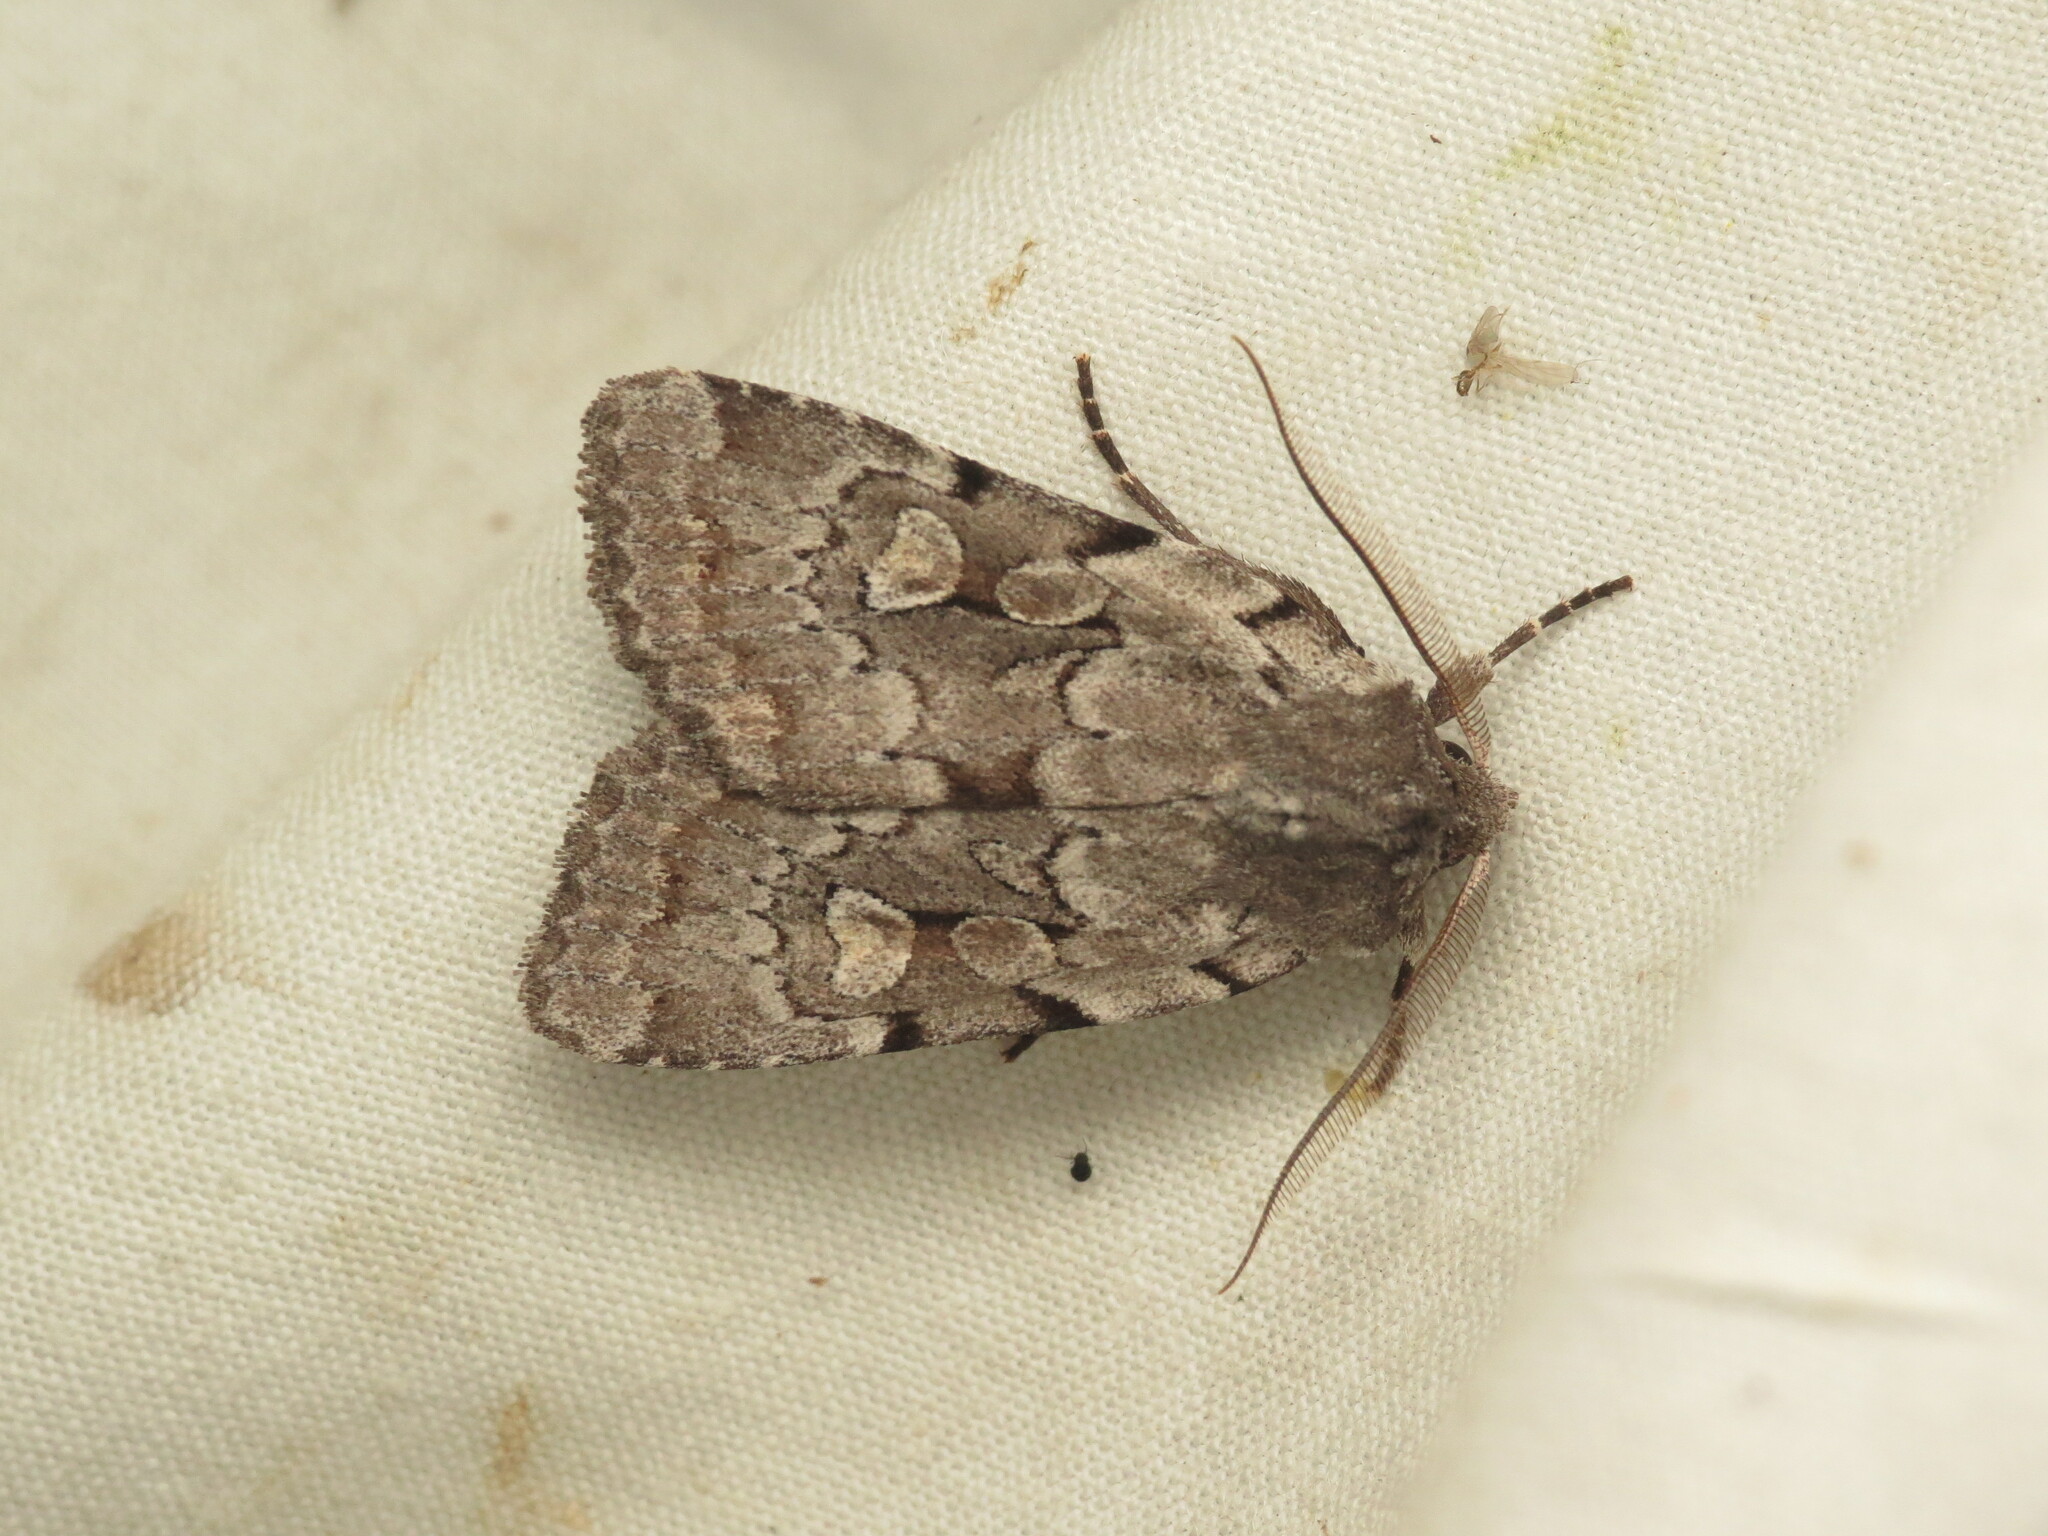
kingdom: Animalia
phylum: Arthropoda
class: Insecta
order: Lepidoptera
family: Noctuidae
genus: Xestia
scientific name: Xestia badicollis
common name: Northern variable dart
